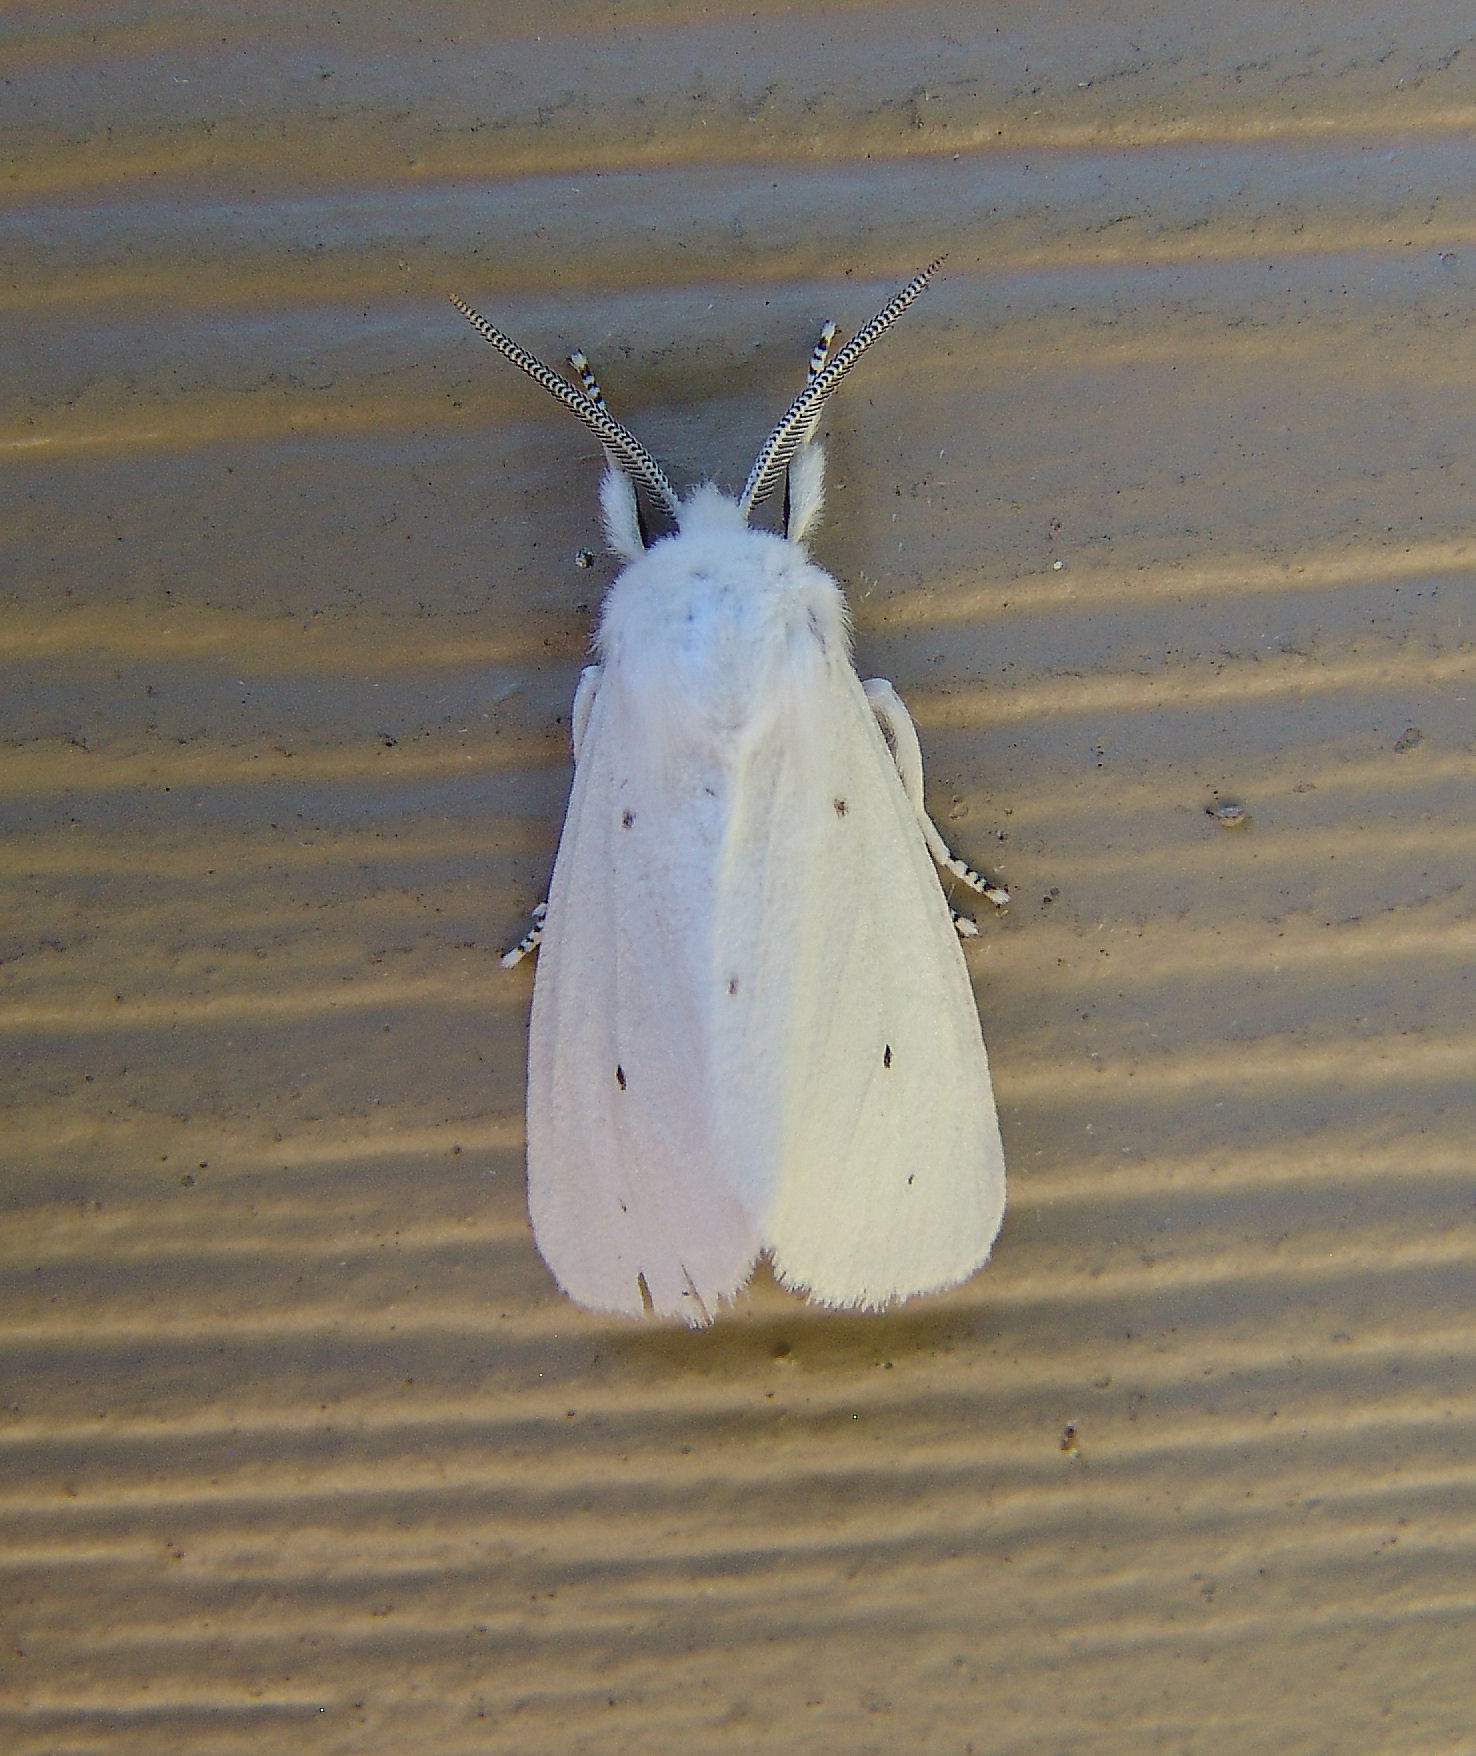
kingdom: Animalia
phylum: Arthropoda
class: Insecta
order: Lepidoptera
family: Erebidae
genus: Spilosoma
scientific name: Spilosoma virginica
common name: Virginia tiger moth
